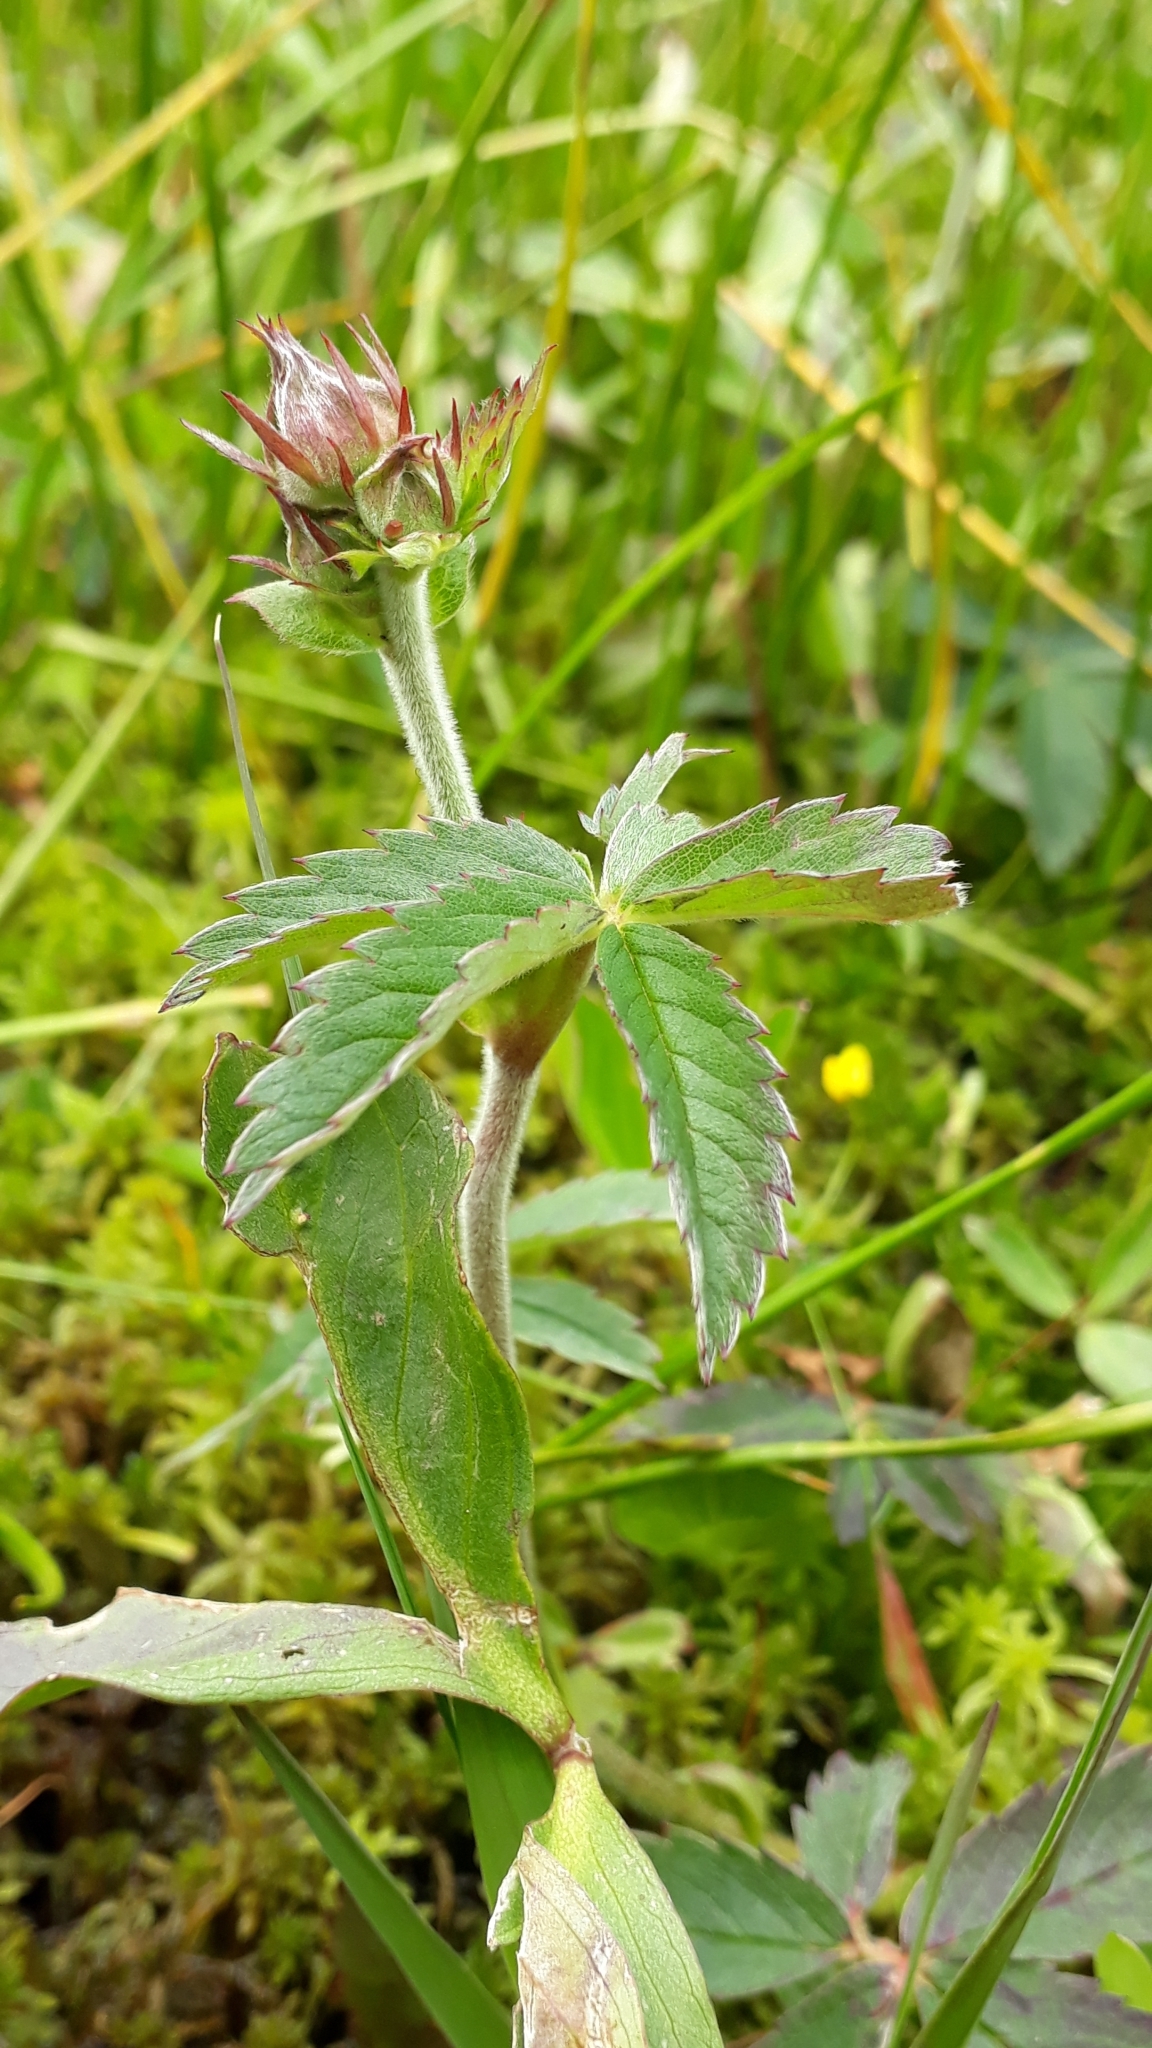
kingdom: Plantae
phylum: Tracheophyta
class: Magnoliopsida
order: Rosales
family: Rosaceae
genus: Comarum
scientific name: Comarum palustre
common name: Marsh cinquefoil
